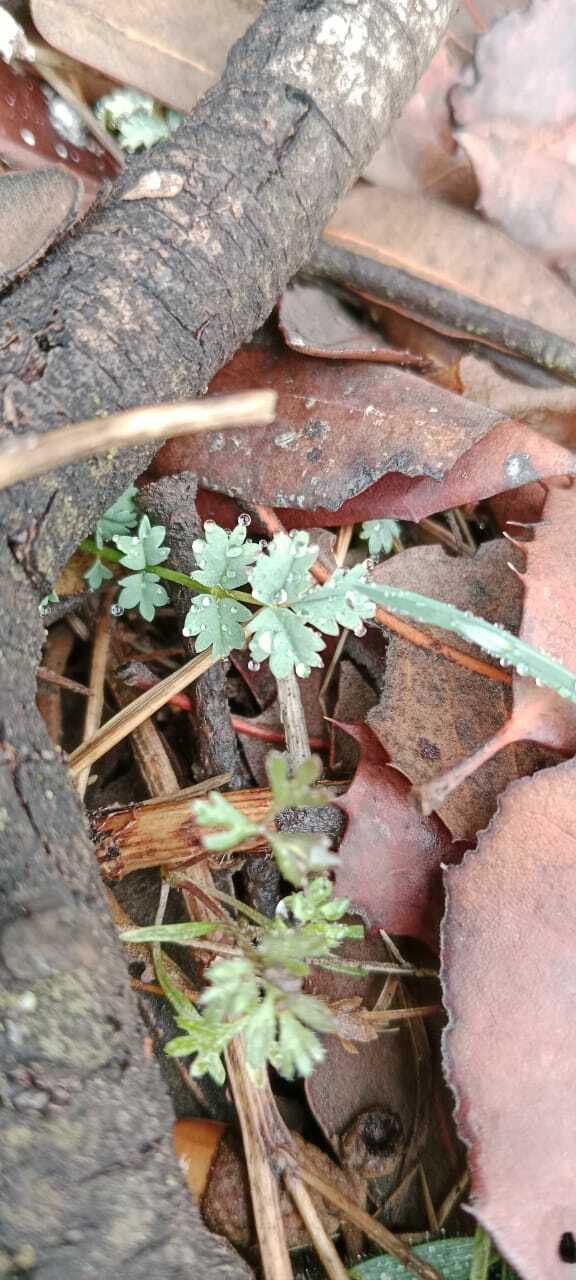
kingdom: Plantae
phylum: Tracheophyta
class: Magnoliopsida
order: Rosales
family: Rosaceae
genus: Poterium
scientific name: Poterium
